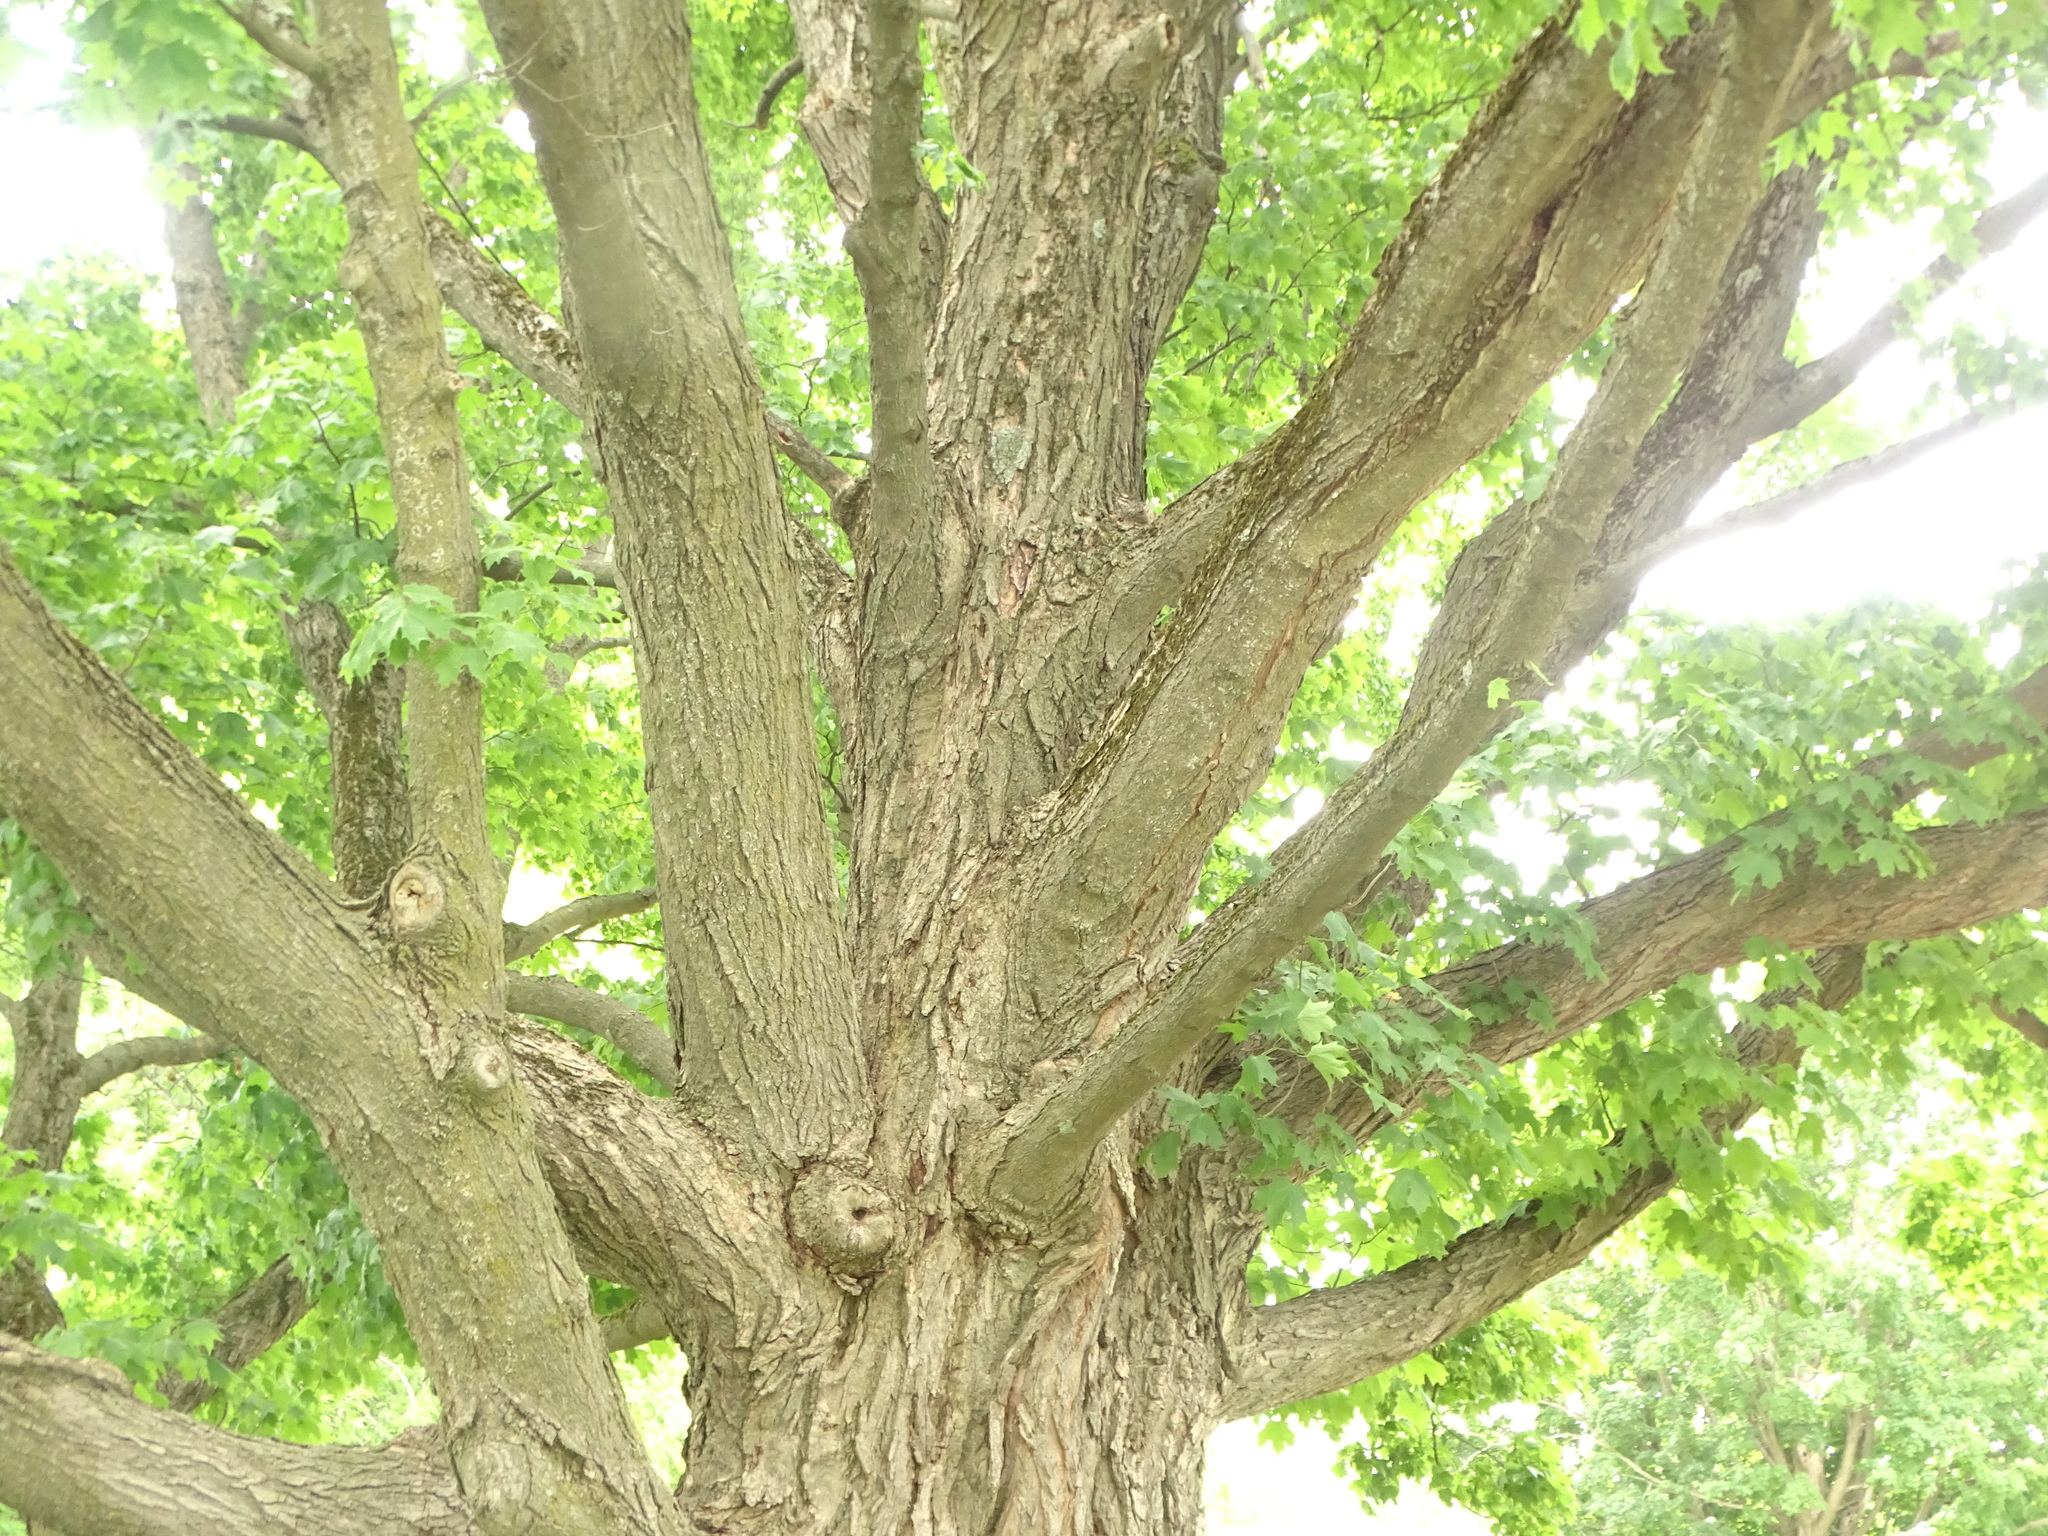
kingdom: Plantae
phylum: Tracheophyta
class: Magnoliopsida
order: Sapindales
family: Sapindaceae
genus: Acer
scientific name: Acer saccharum
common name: Sugar maple
